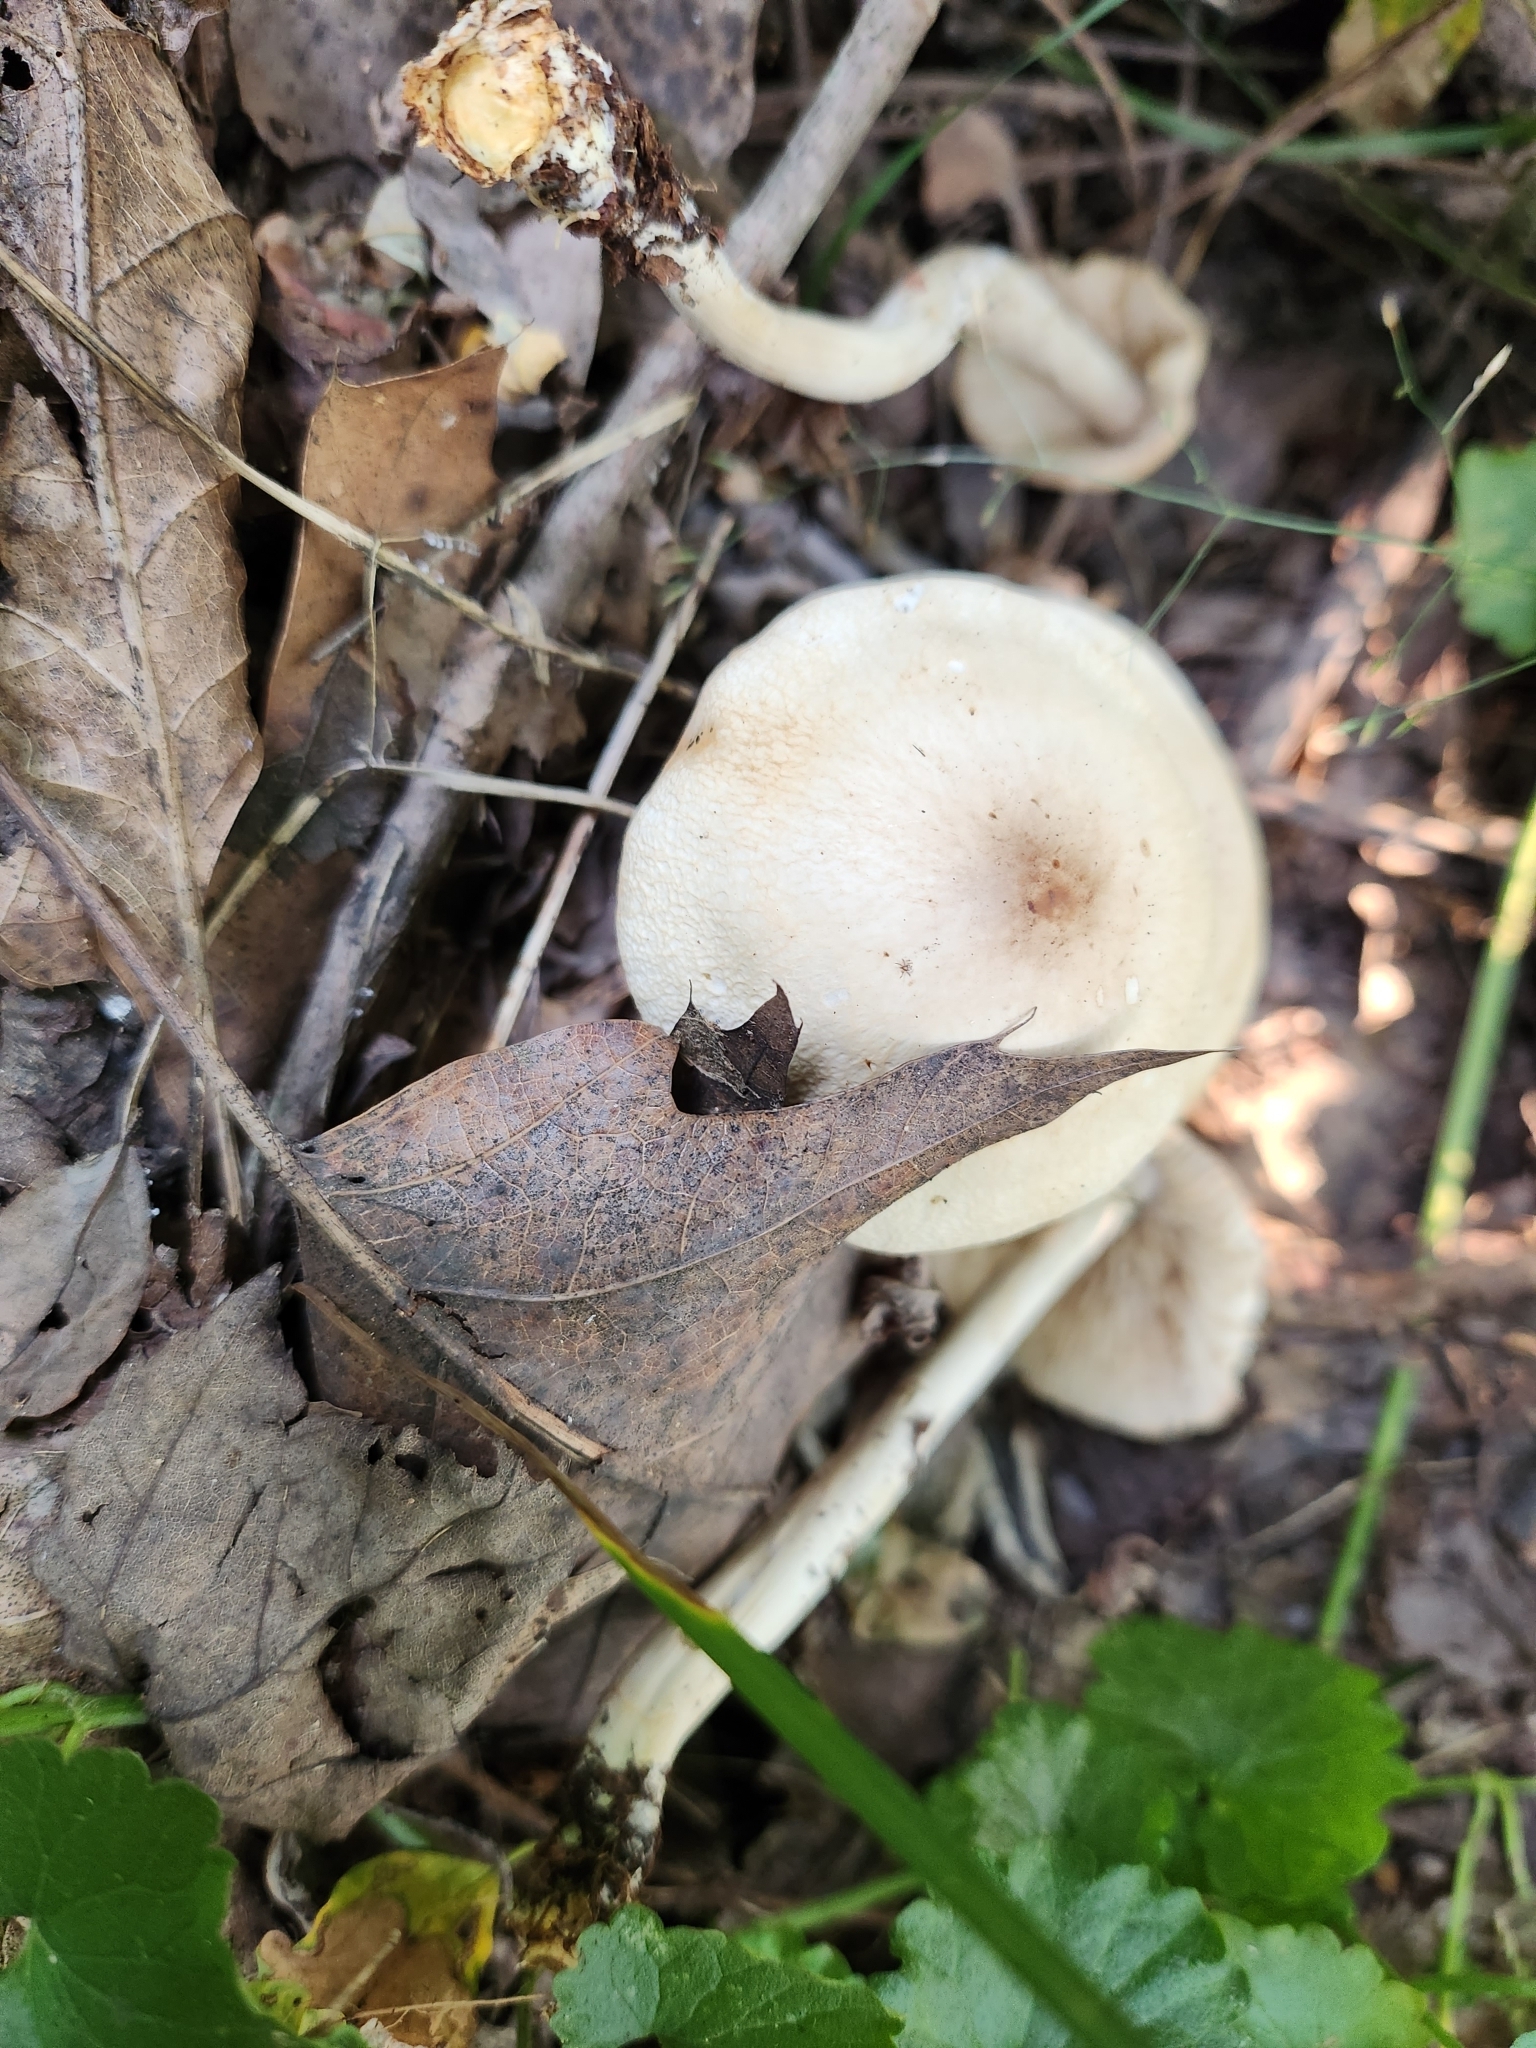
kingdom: Fungi
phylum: Basidiomycota
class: Agaricomycetes
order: Agaricales
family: Marasmiaceae
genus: Marasmius
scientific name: Marasmius nigrodiscus
